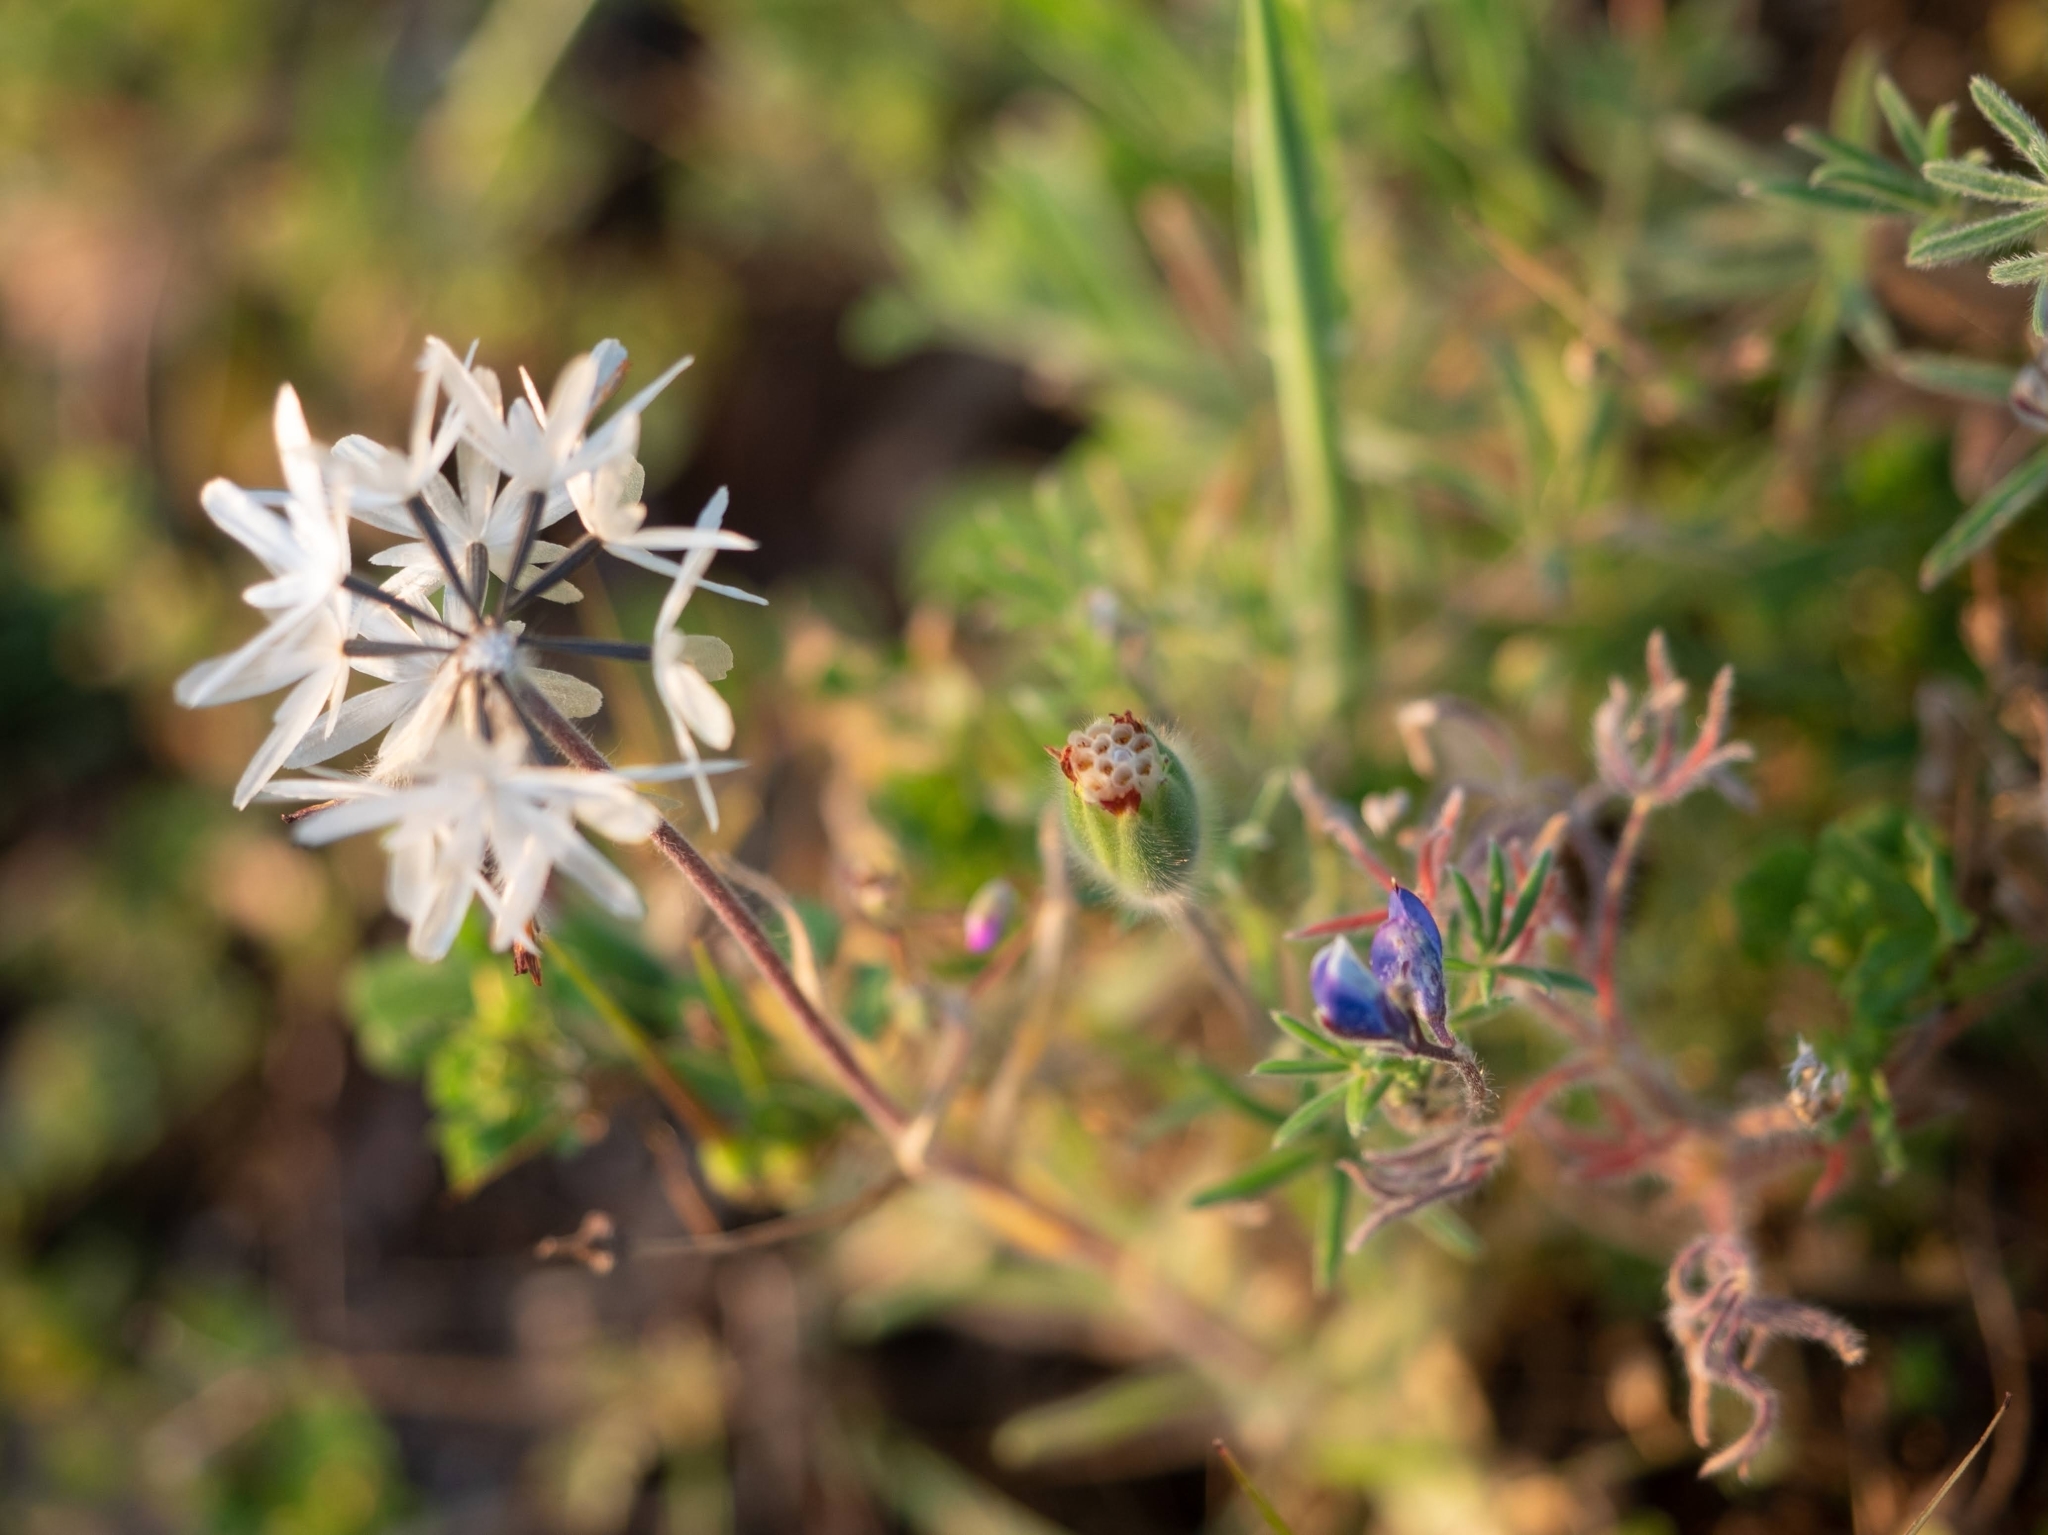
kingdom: Plantae
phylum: Tracheophyta
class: Magnoliopsida
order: Asterales
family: Asteraceae
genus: Achyrachaena
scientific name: Achyrachaena mollis
